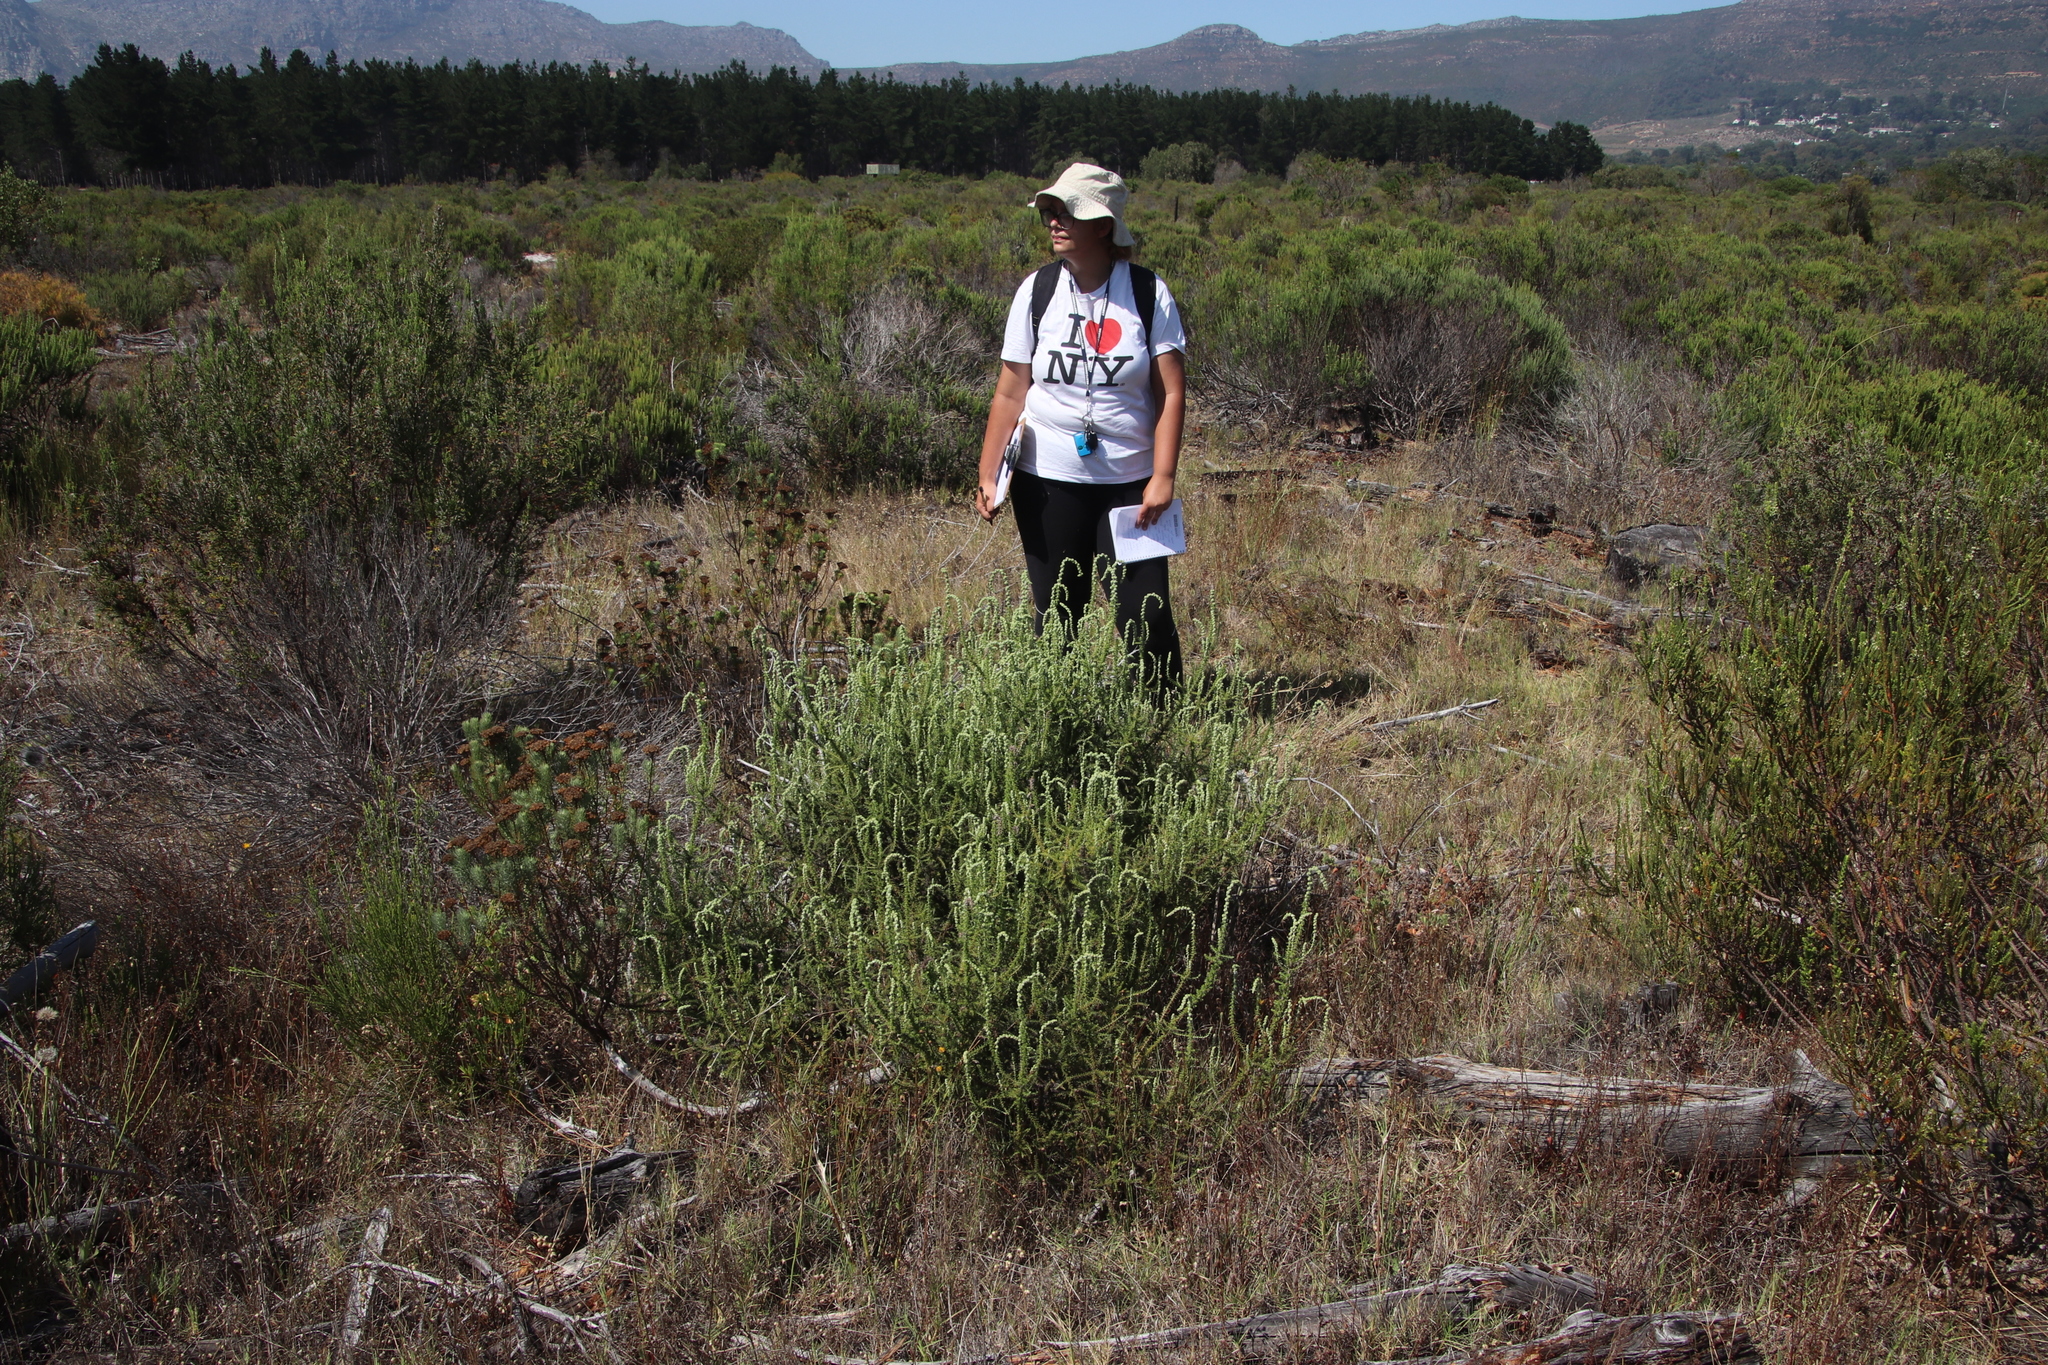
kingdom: Plantae
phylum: Tracheophyta
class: Magnoliopsida
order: Asterales
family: Asteraceae
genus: Seriphium
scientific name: Seriphium cinereum
